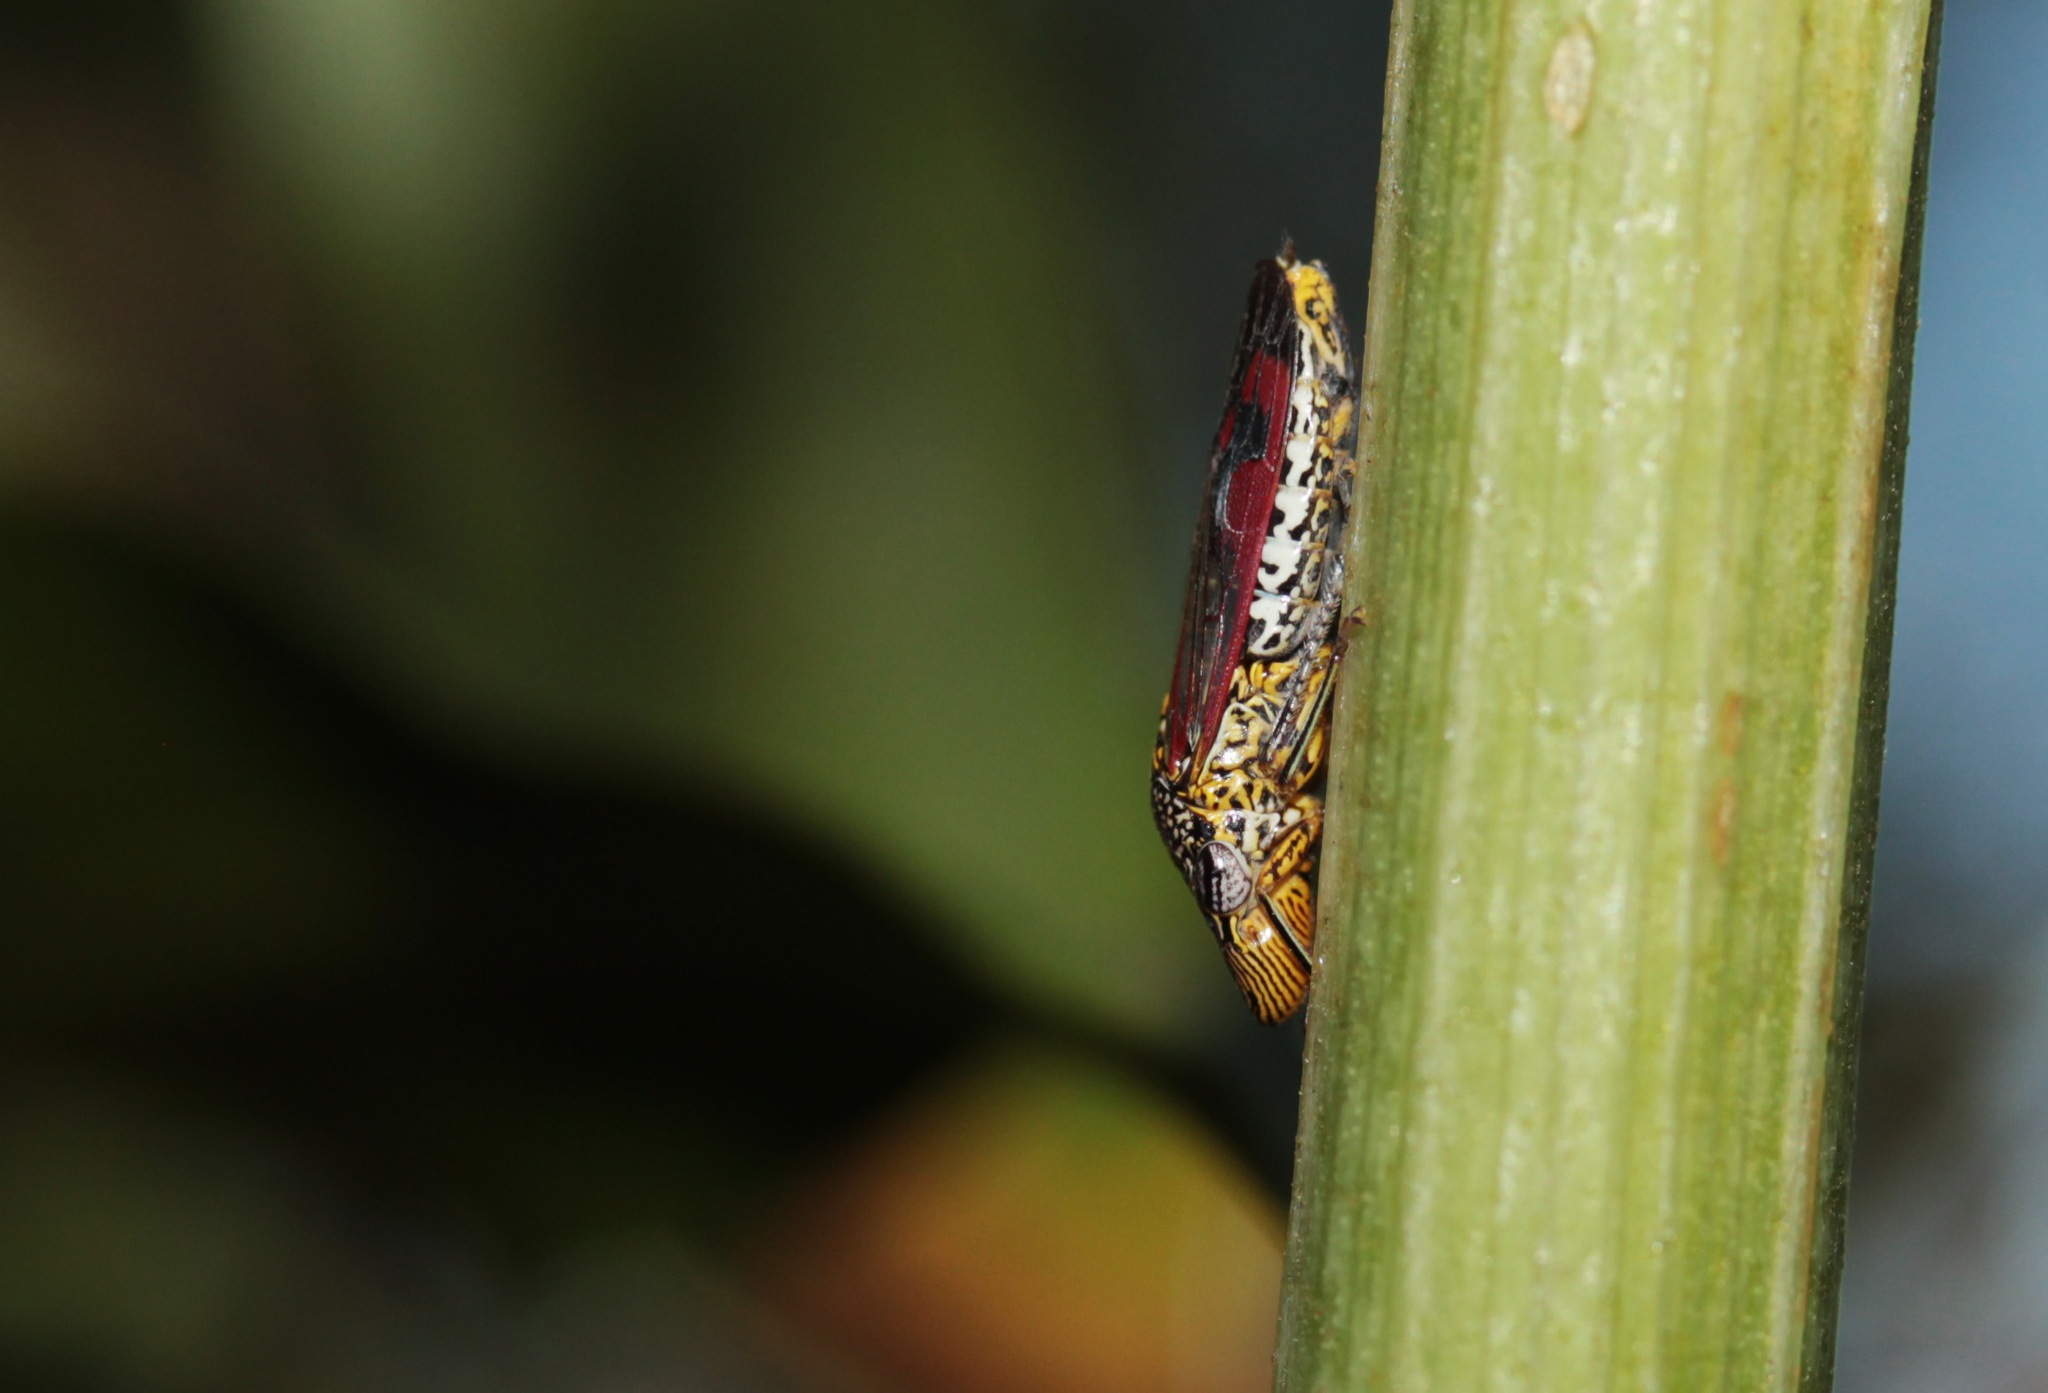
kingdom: Animalia
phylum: Arthropoda
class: Insecta
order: Hemiptera
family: Cicadellidae
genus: Homalodisca
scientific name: Homalodisca liturata
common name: Lacertate sharpshooter
